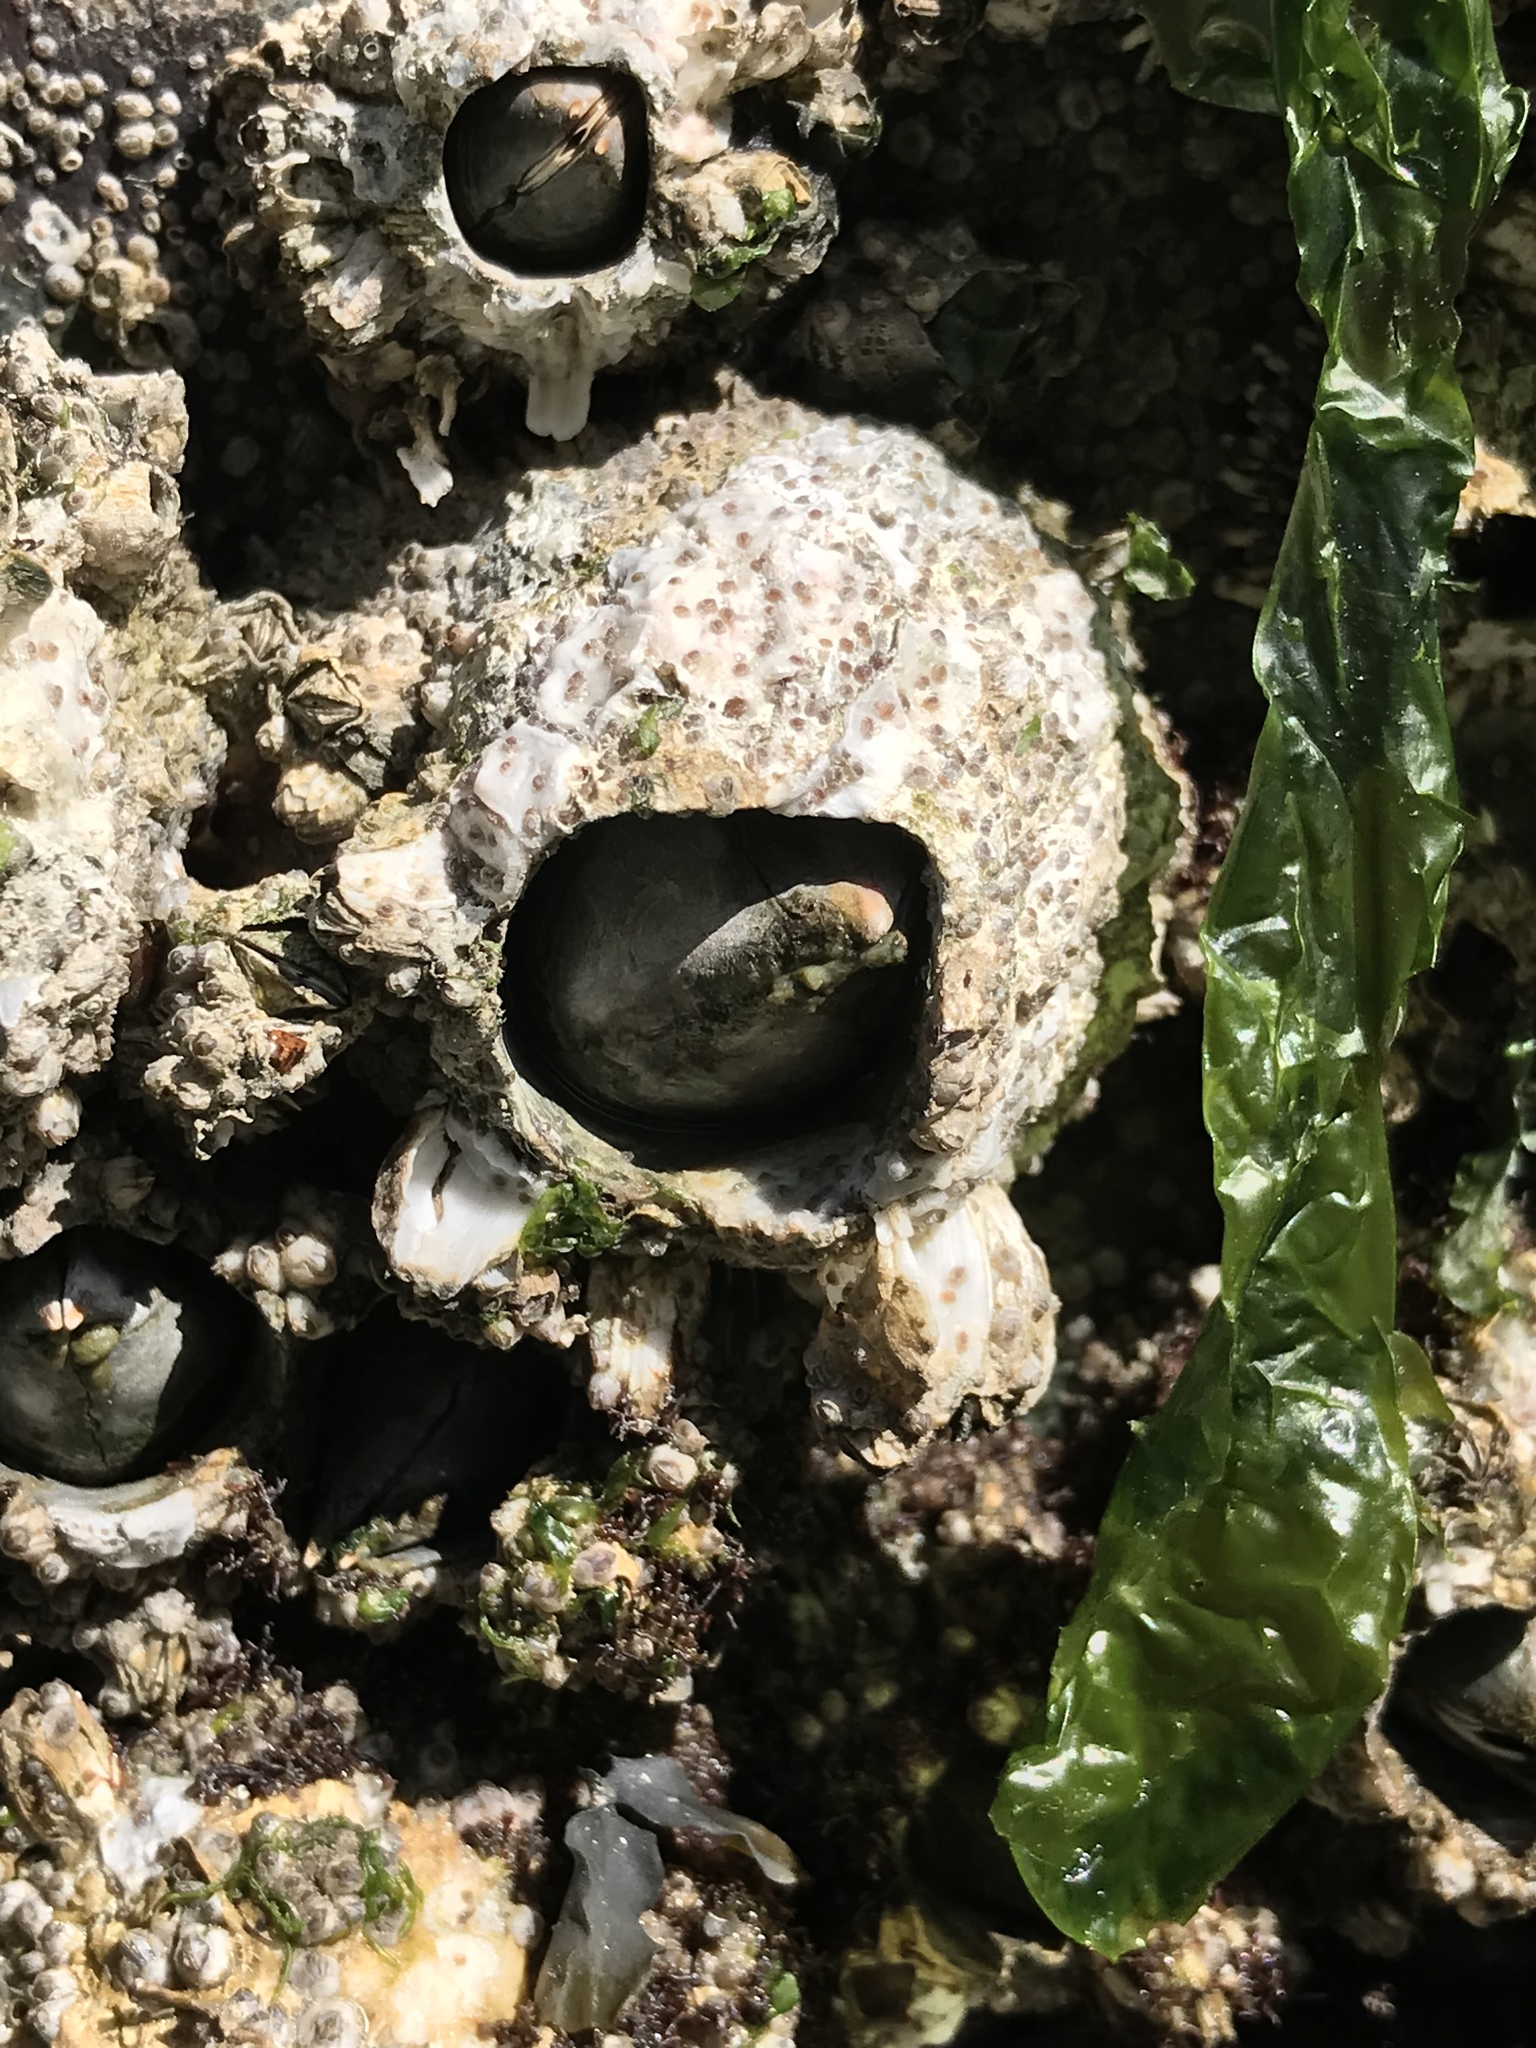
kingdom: Animalia
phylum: Arthropoda
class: Maxillopoda
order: Sessilia
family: Archaeobalanidae
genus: Semibalanus
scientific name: Semibalanus cariosus
